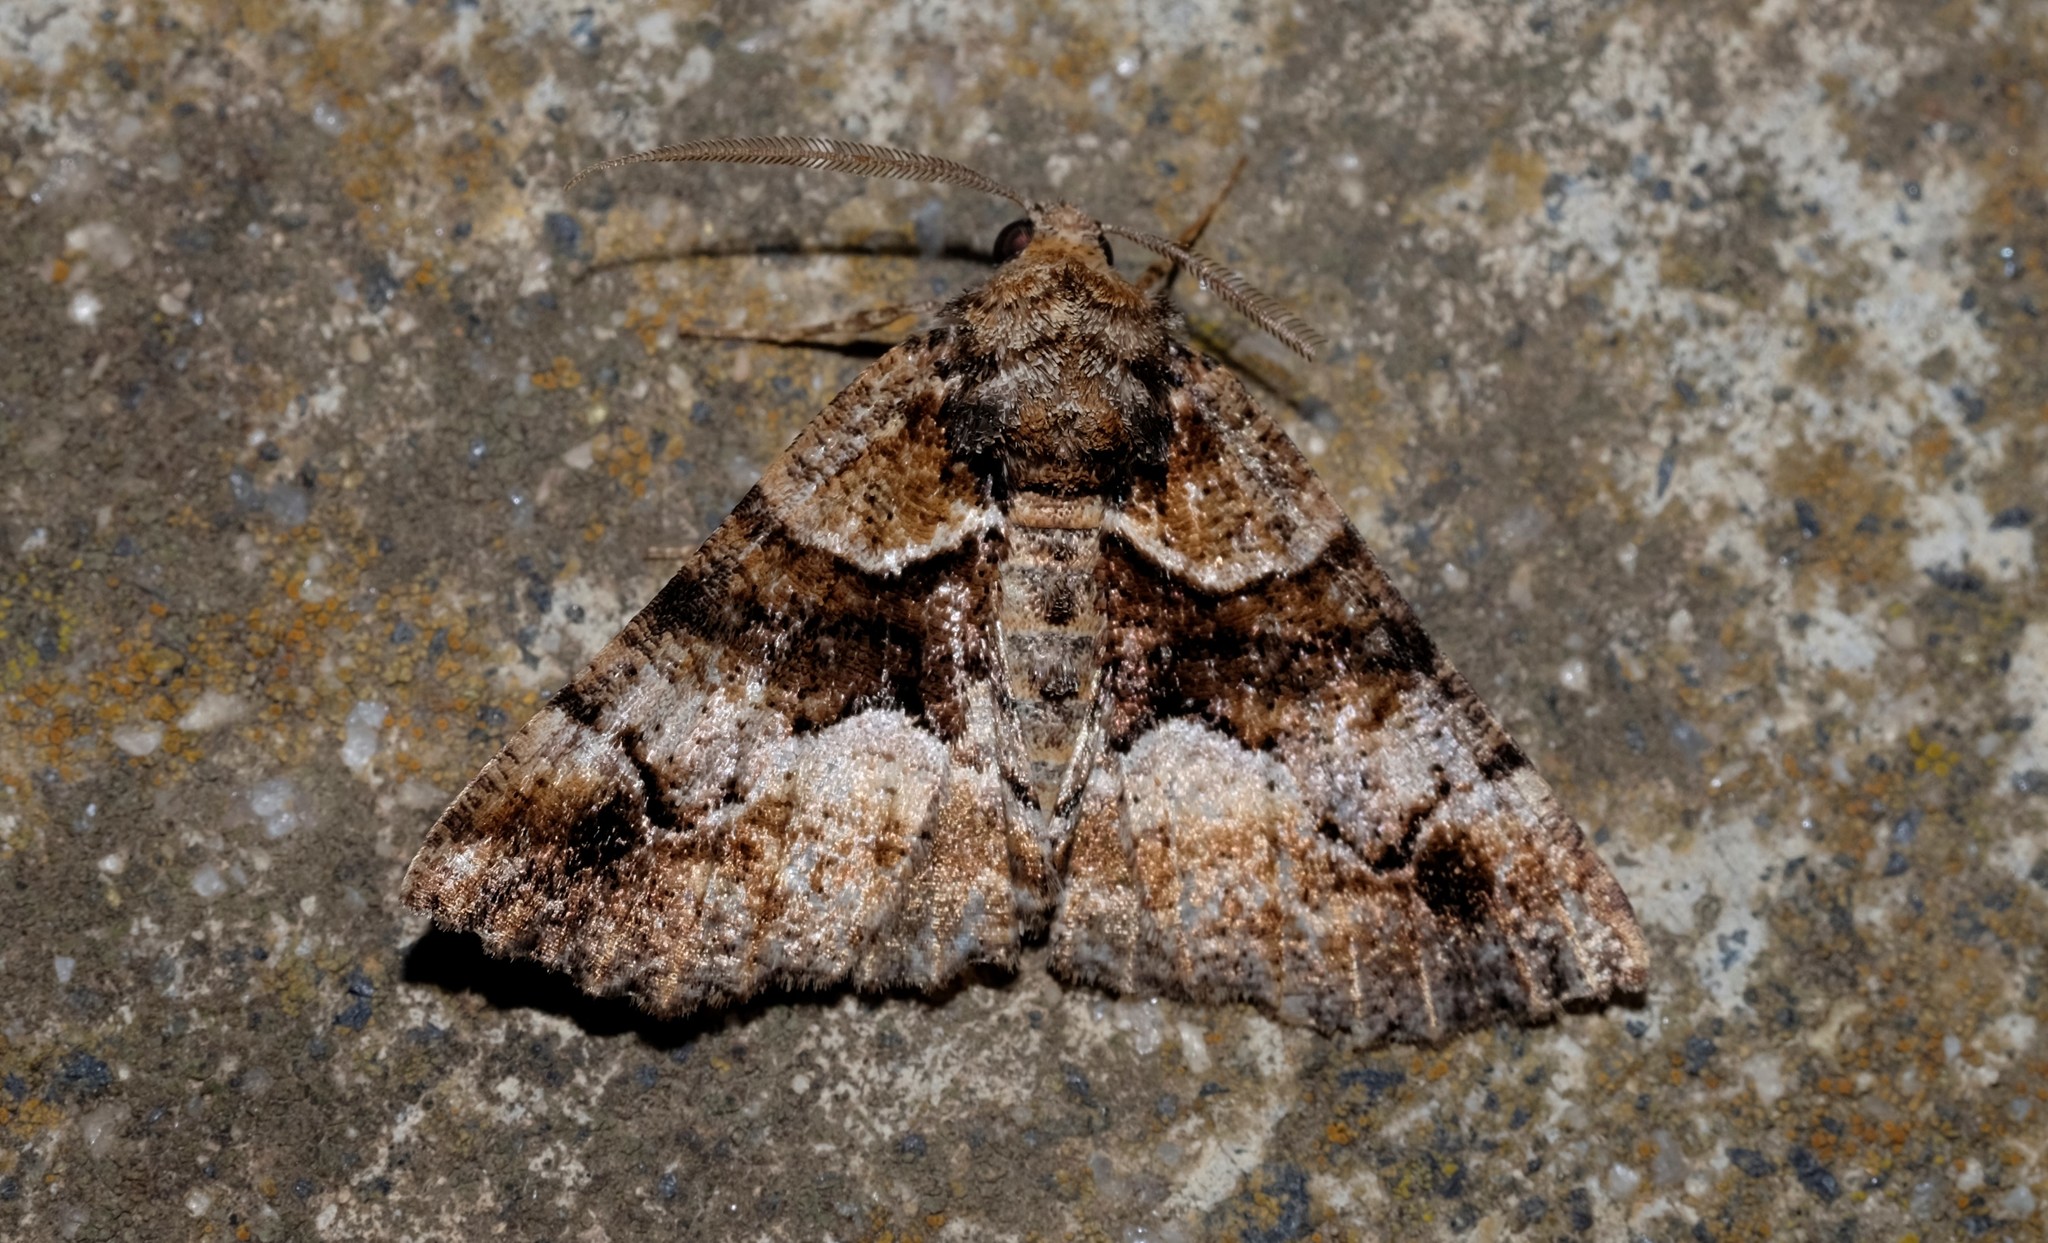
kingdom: Animalia
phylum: Arthropoda
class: Insecta
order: Lepidoptera
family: Geometridae
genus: Gastrina
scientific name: Gastrina cristaria
